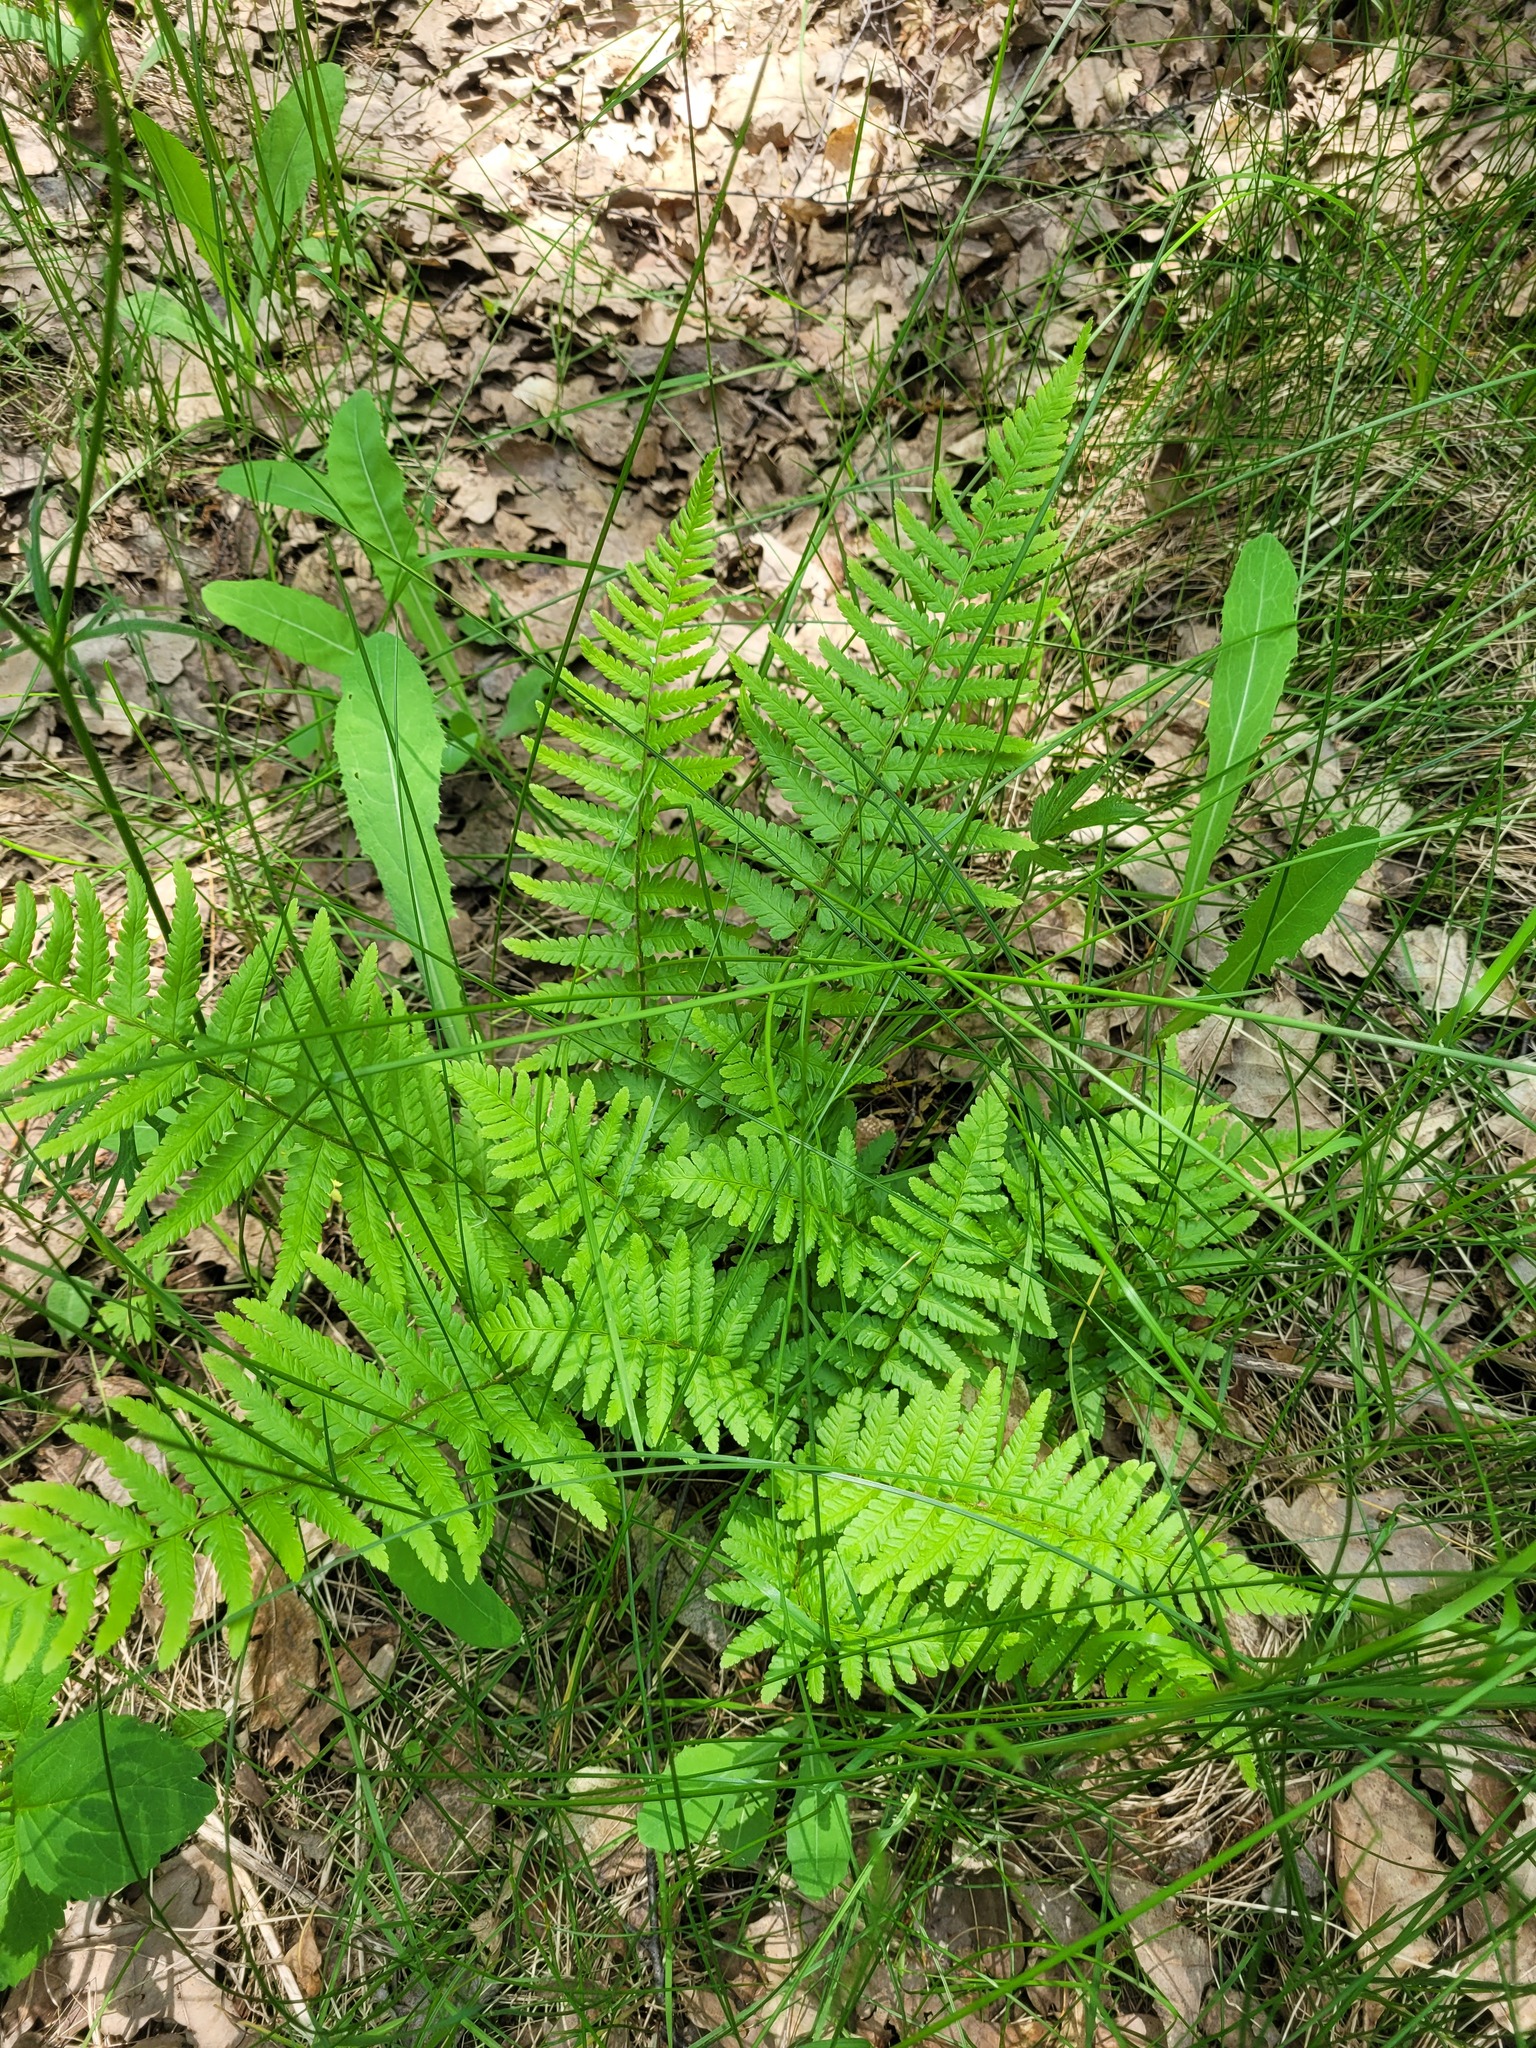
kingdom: Plantae
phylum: Tracheophyta
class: Polypodiopsida
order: Polypodiales
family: Dryopteridaceae
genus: Dryopteris
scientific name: Dryopteris filix-mas
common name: Male fern
